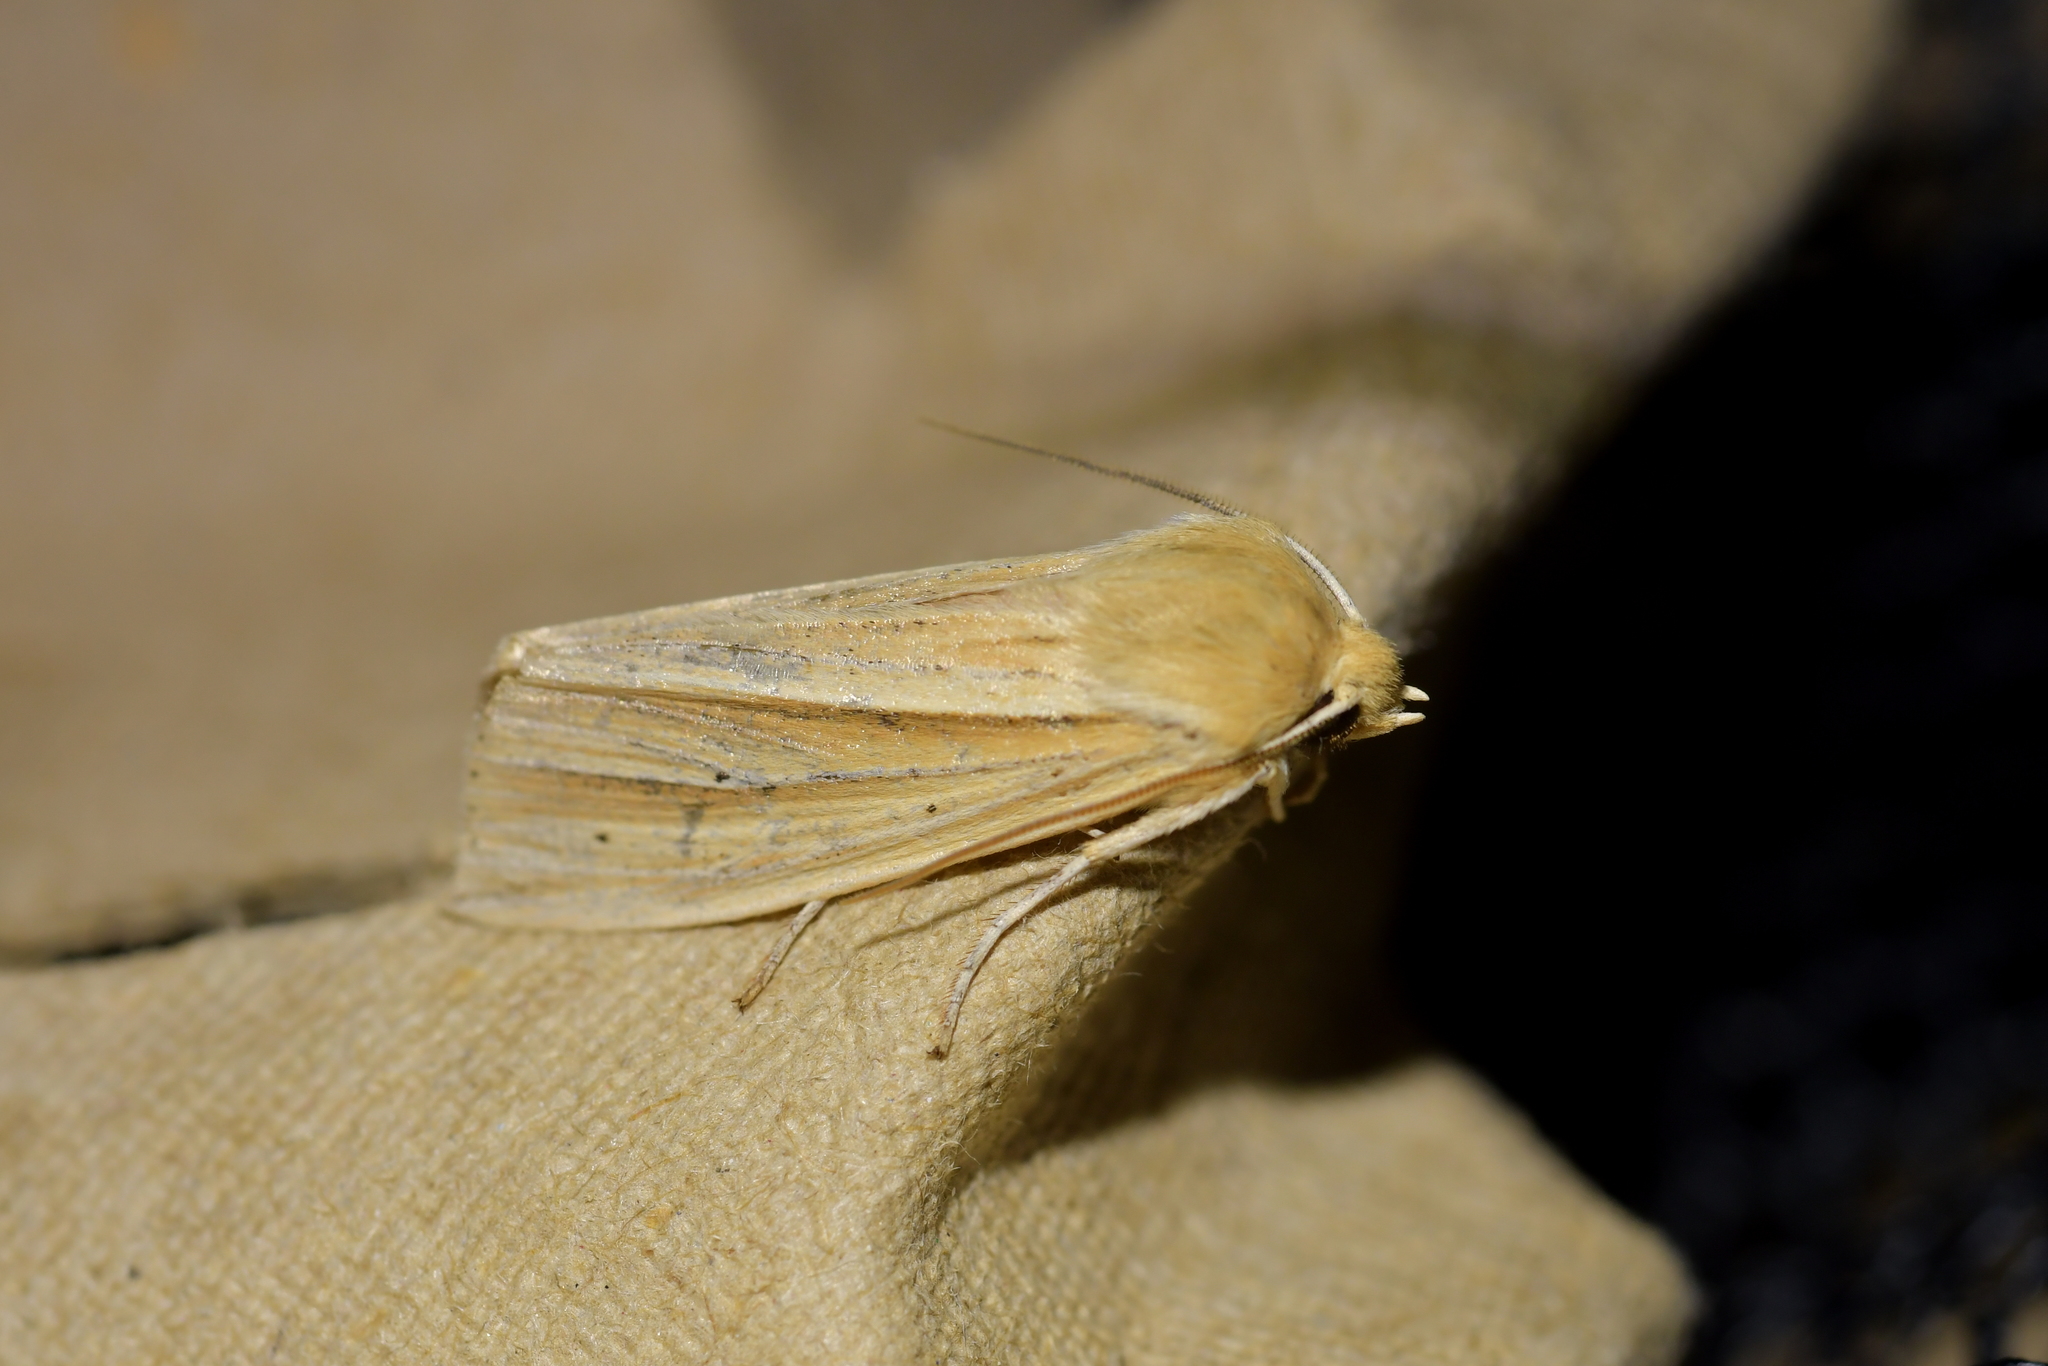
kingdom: Animalia
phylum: Arthropoda
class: Insecta
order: Lepidoptera
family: Noctuidae
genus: Ichneutica
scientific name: Ichneutica sulcana
